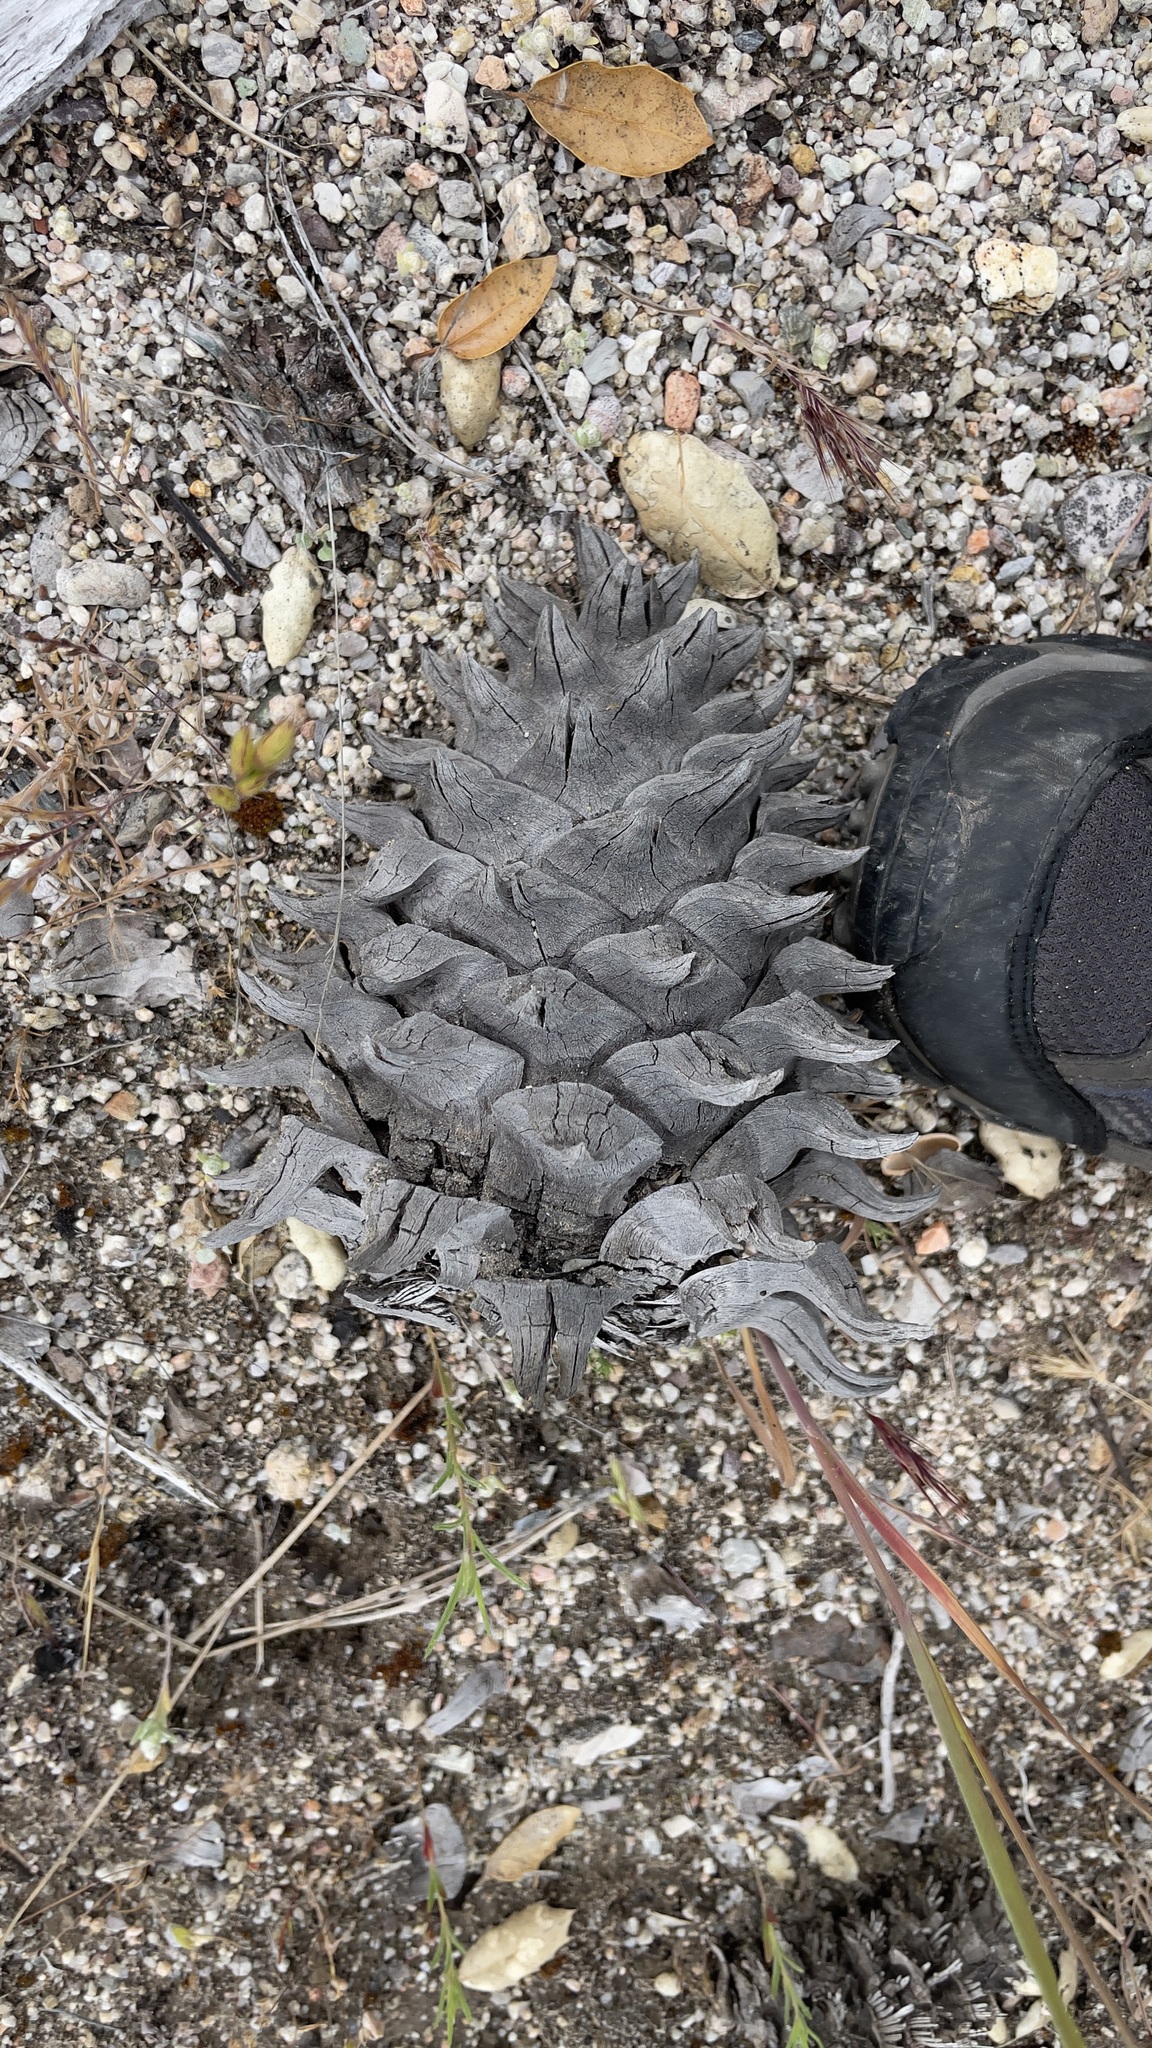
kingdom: Plantae
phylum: Tracheophyta
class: Pinopsida
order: Pinales
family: Pinaceae
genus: Pinus
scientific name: Pinus sabiniana
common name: Bull pine
